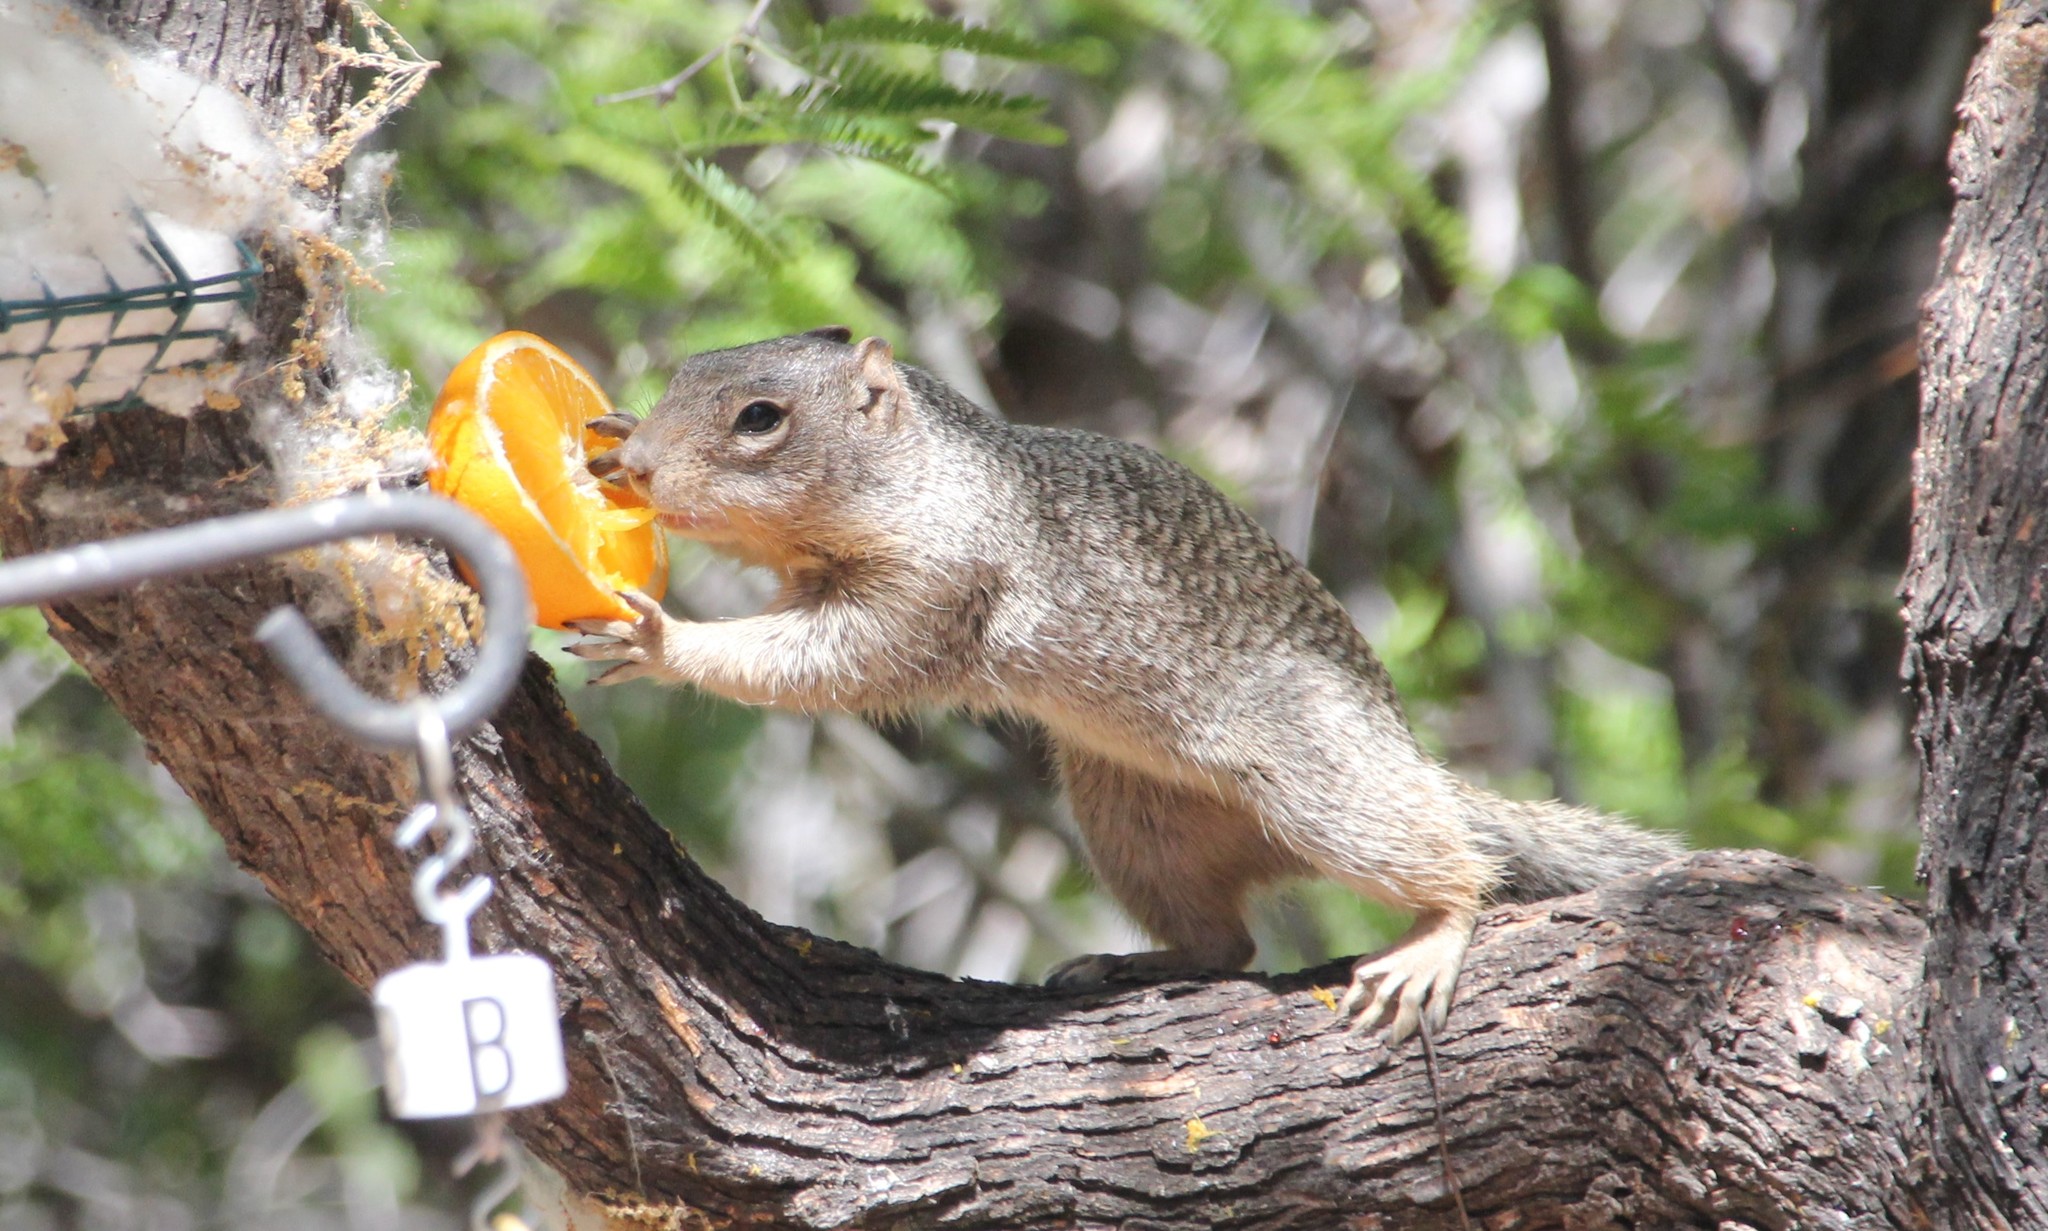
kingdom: Animalia
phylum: Chordata
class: Mammalia
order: Rodentia
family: Sciuridae
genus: Otospermophilus
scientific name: Otospermophilus variegatus
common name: Rock squirrel
